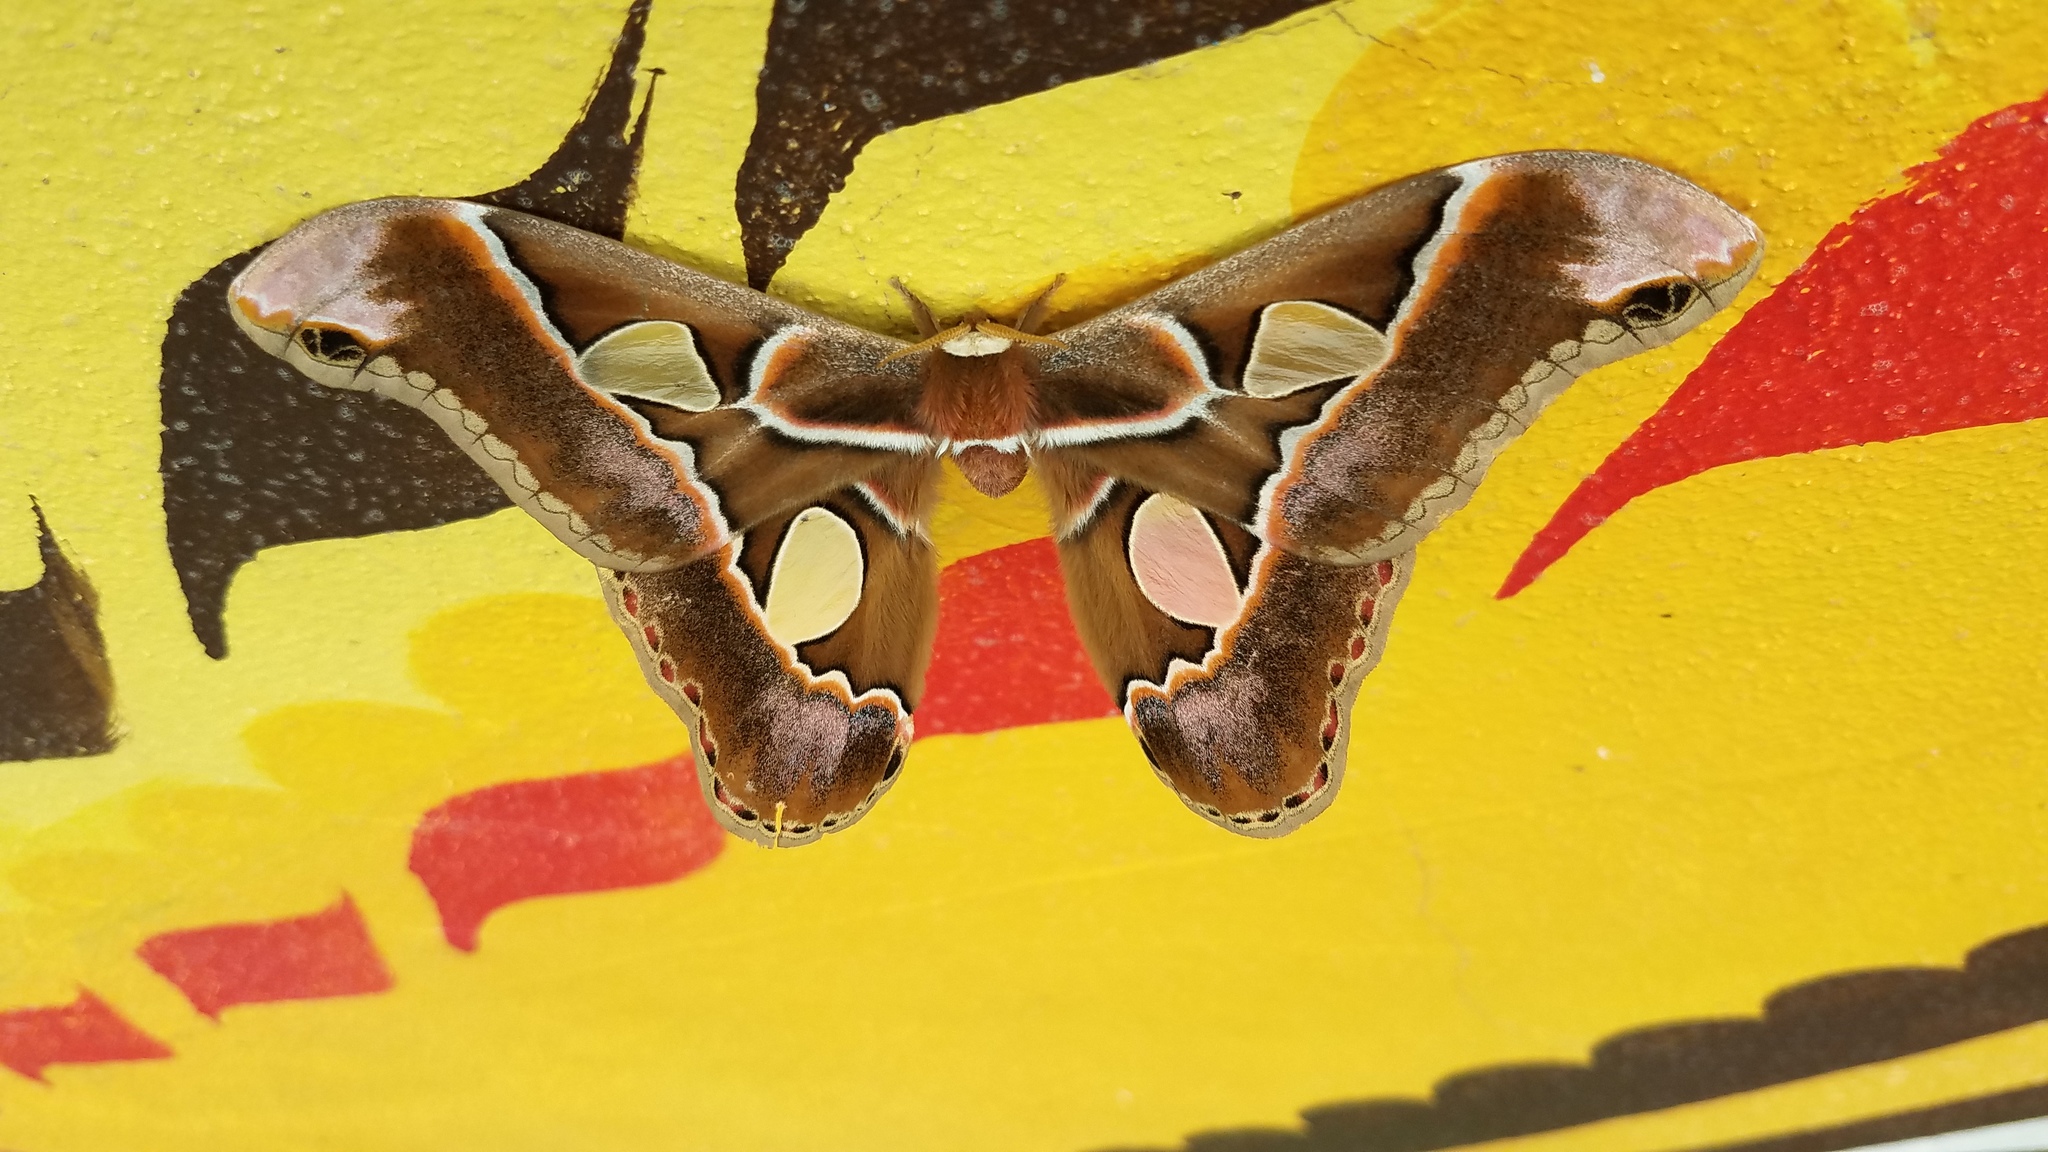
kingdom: Animalia
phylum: Arthropoda
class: Insecta
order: Lepidoptera
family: Saturniidae
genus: Rothschildia
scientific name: Rothschildia lebeau
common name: Lebeau's rothschildia
